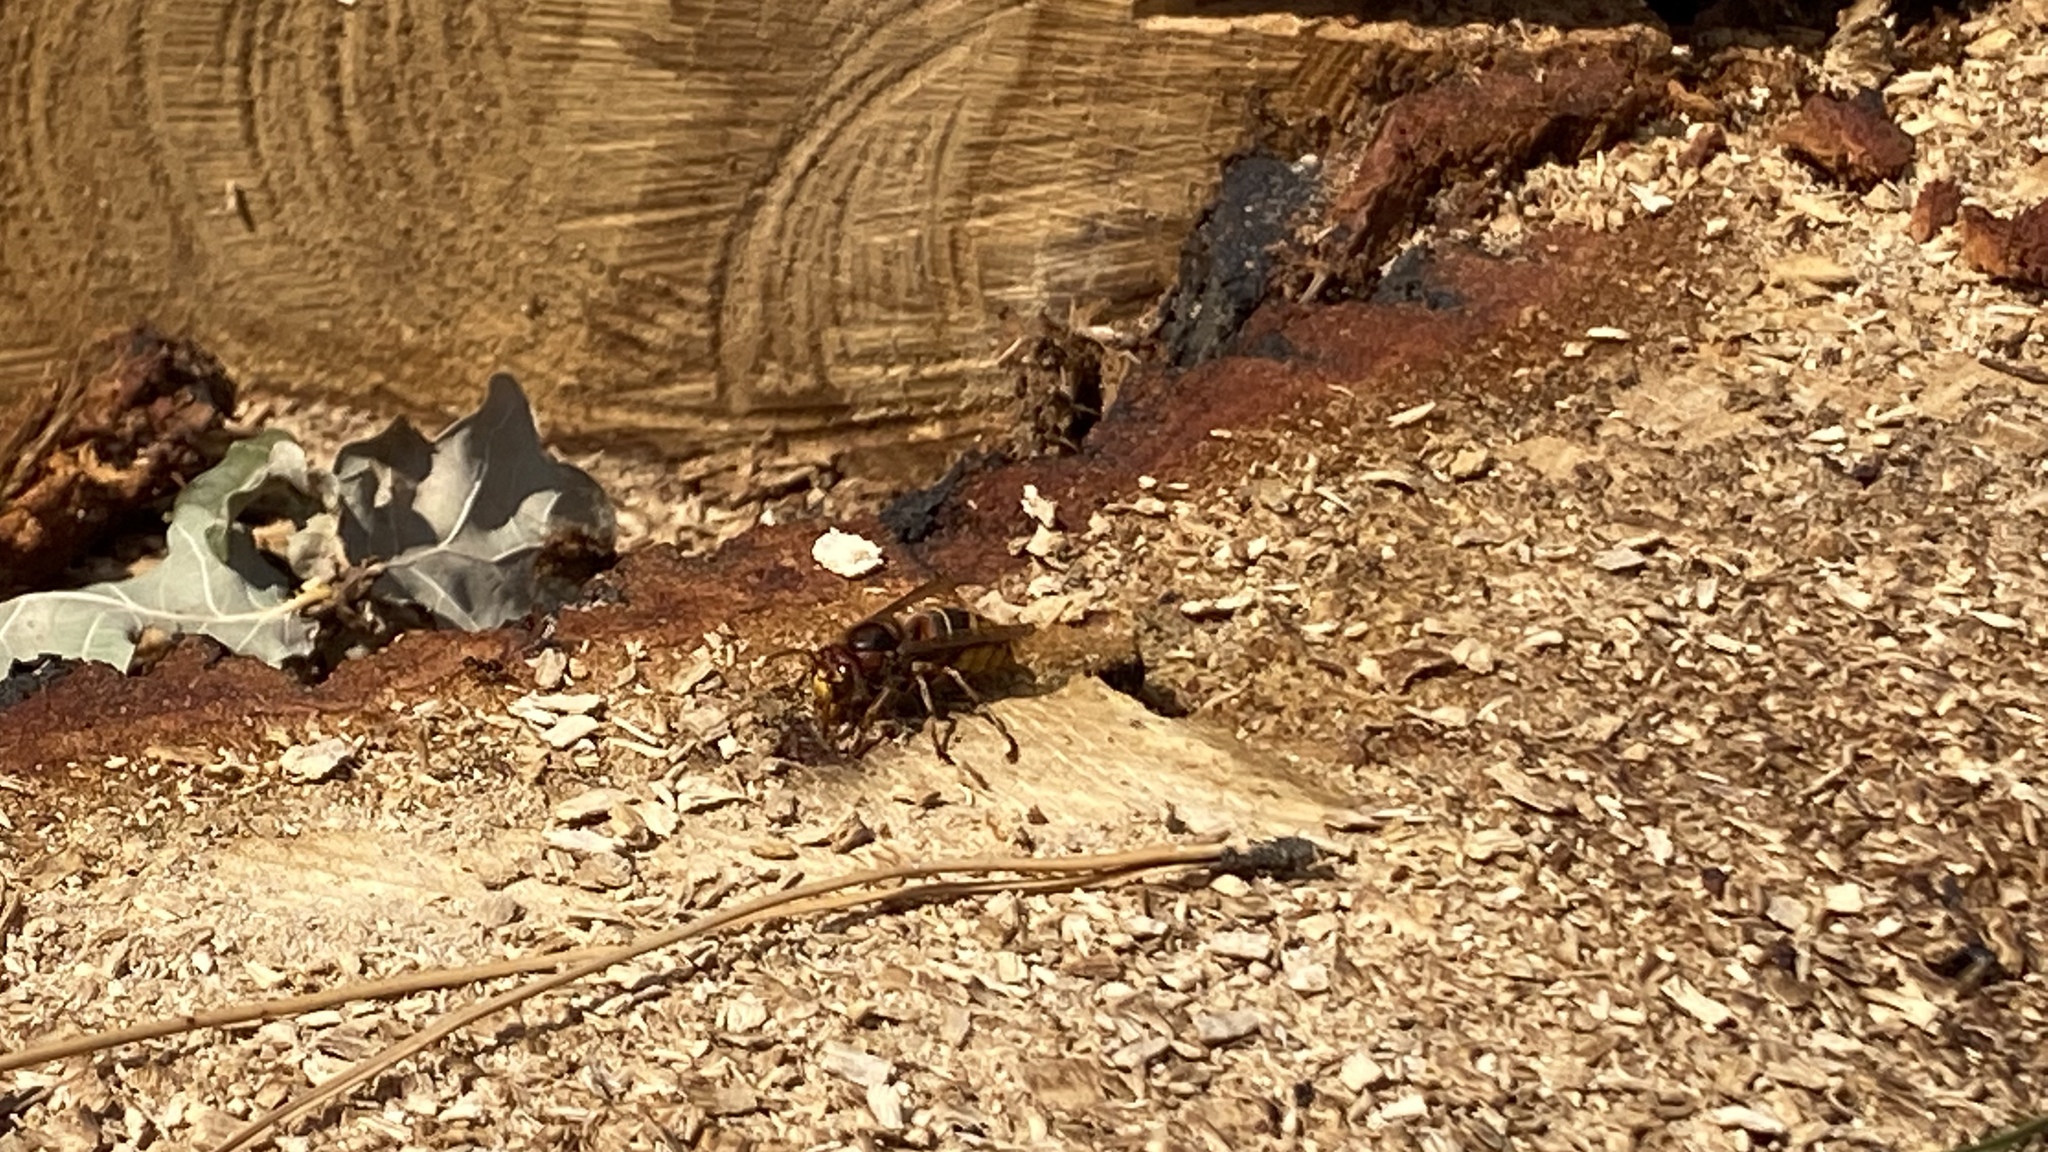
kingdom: Animalia
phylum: Arthropoda
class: Insecta
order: Hymenoptera
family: Vespidae
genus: Vespa
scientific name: Vespa crabro
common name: Hornet
